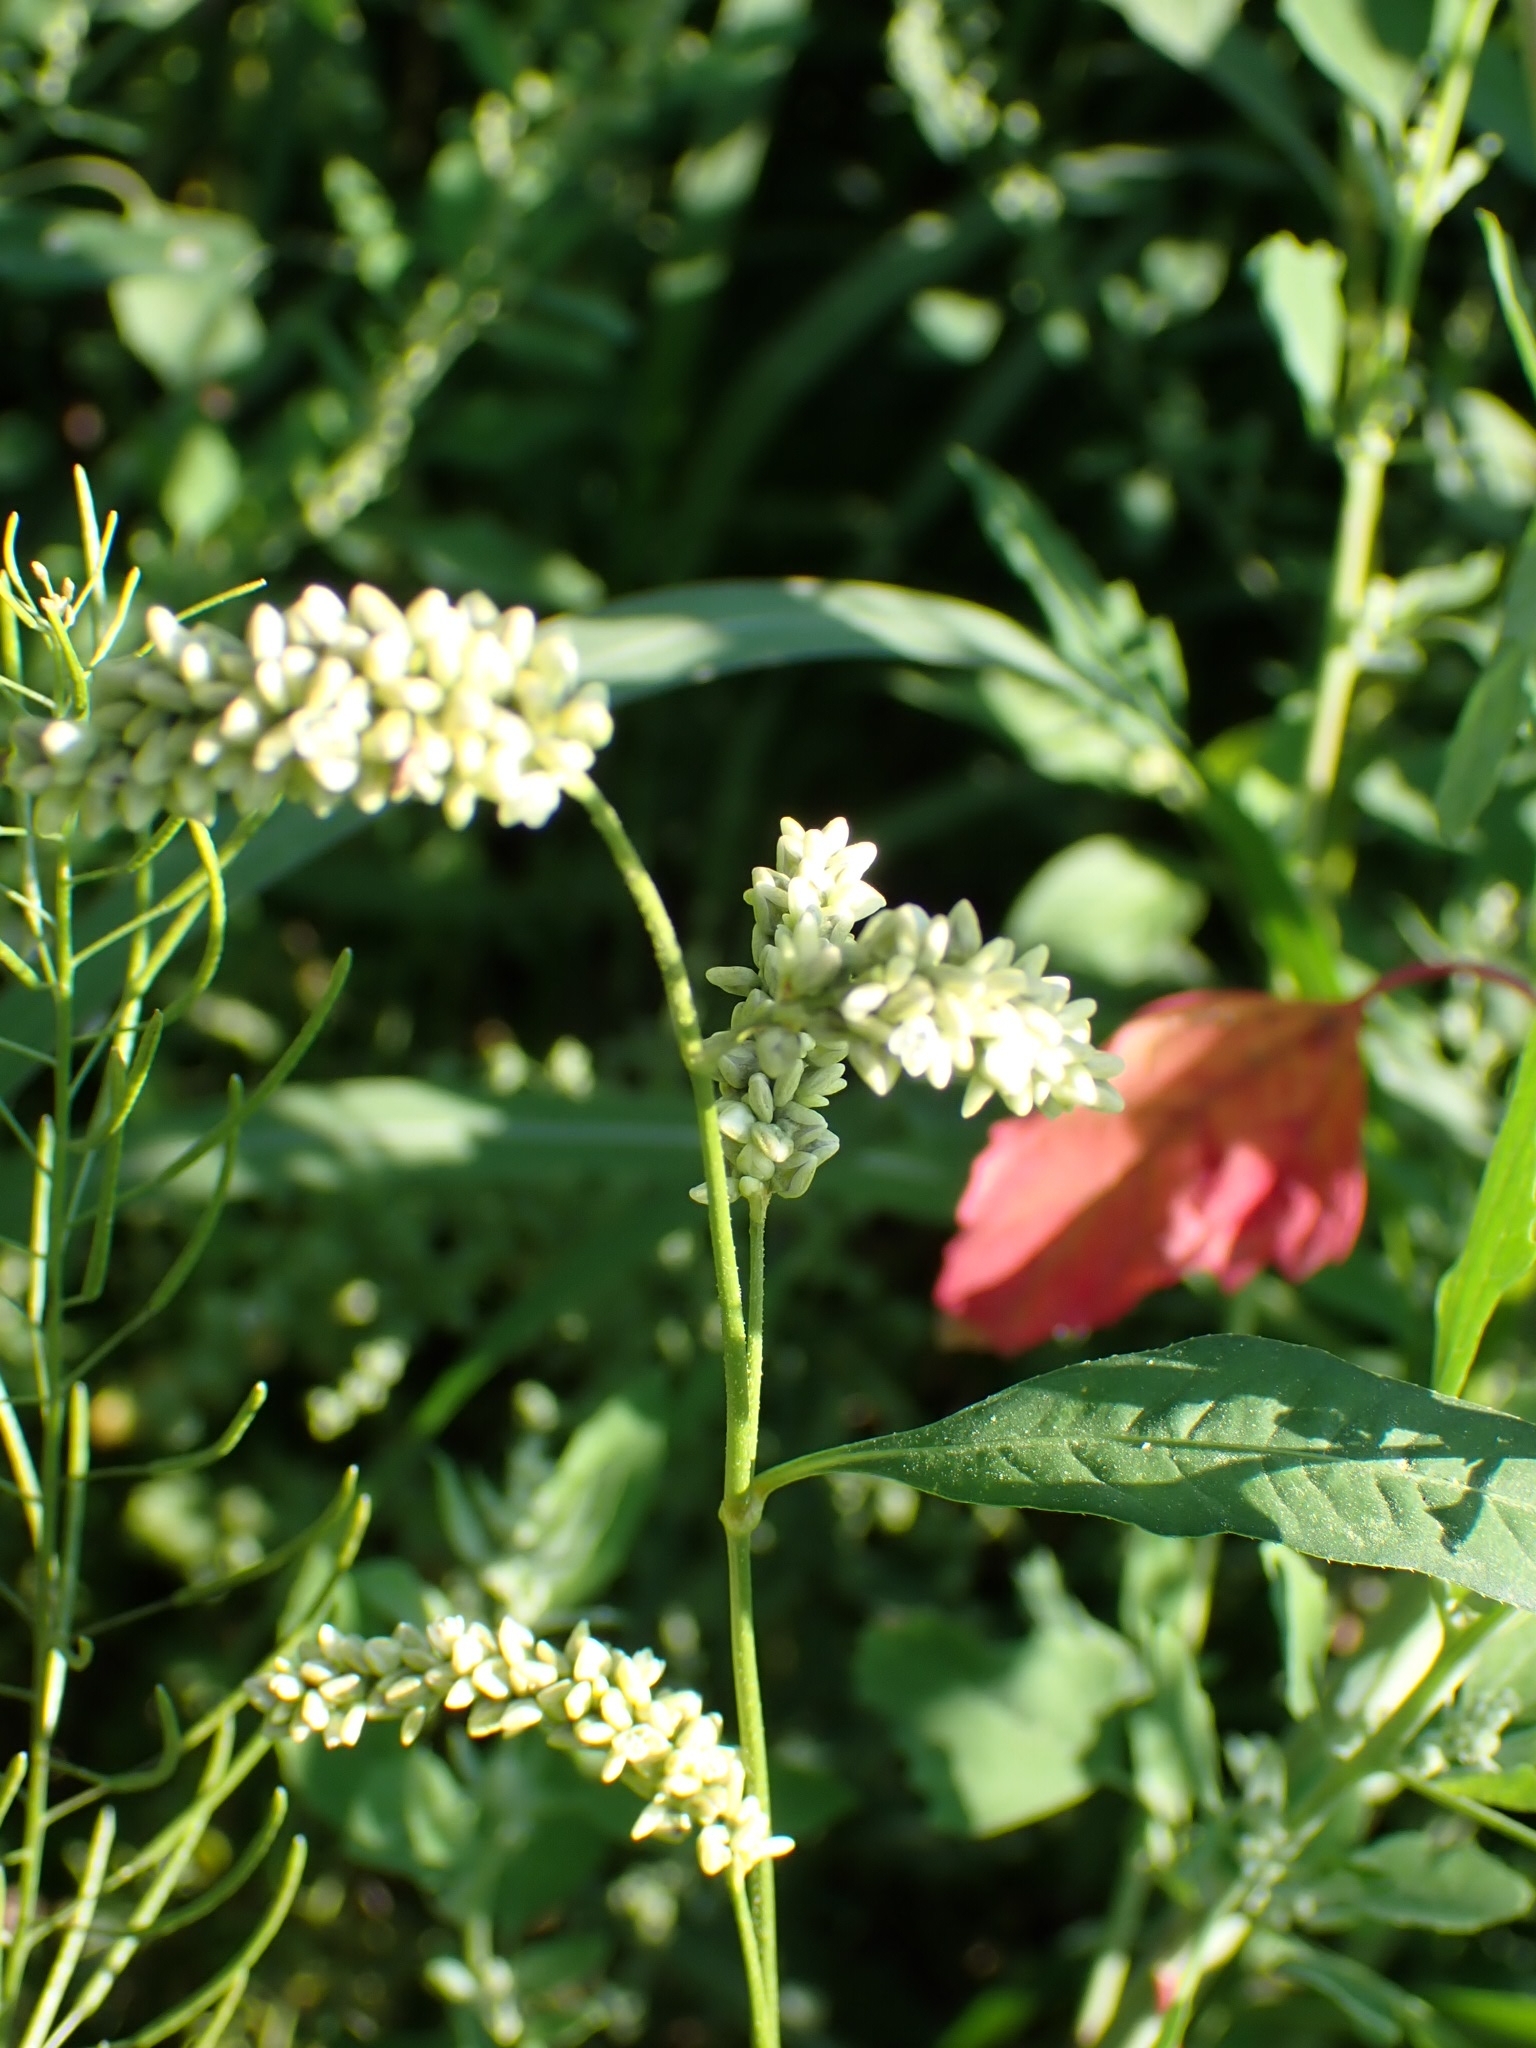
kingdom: Plantae
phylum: Tracheophyta
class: Magnoliopsida
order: Caryophyllales
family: Polygonaceae
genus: Persicaria
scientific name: Persicaria lapathifolia
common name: Curlytop knotweed
